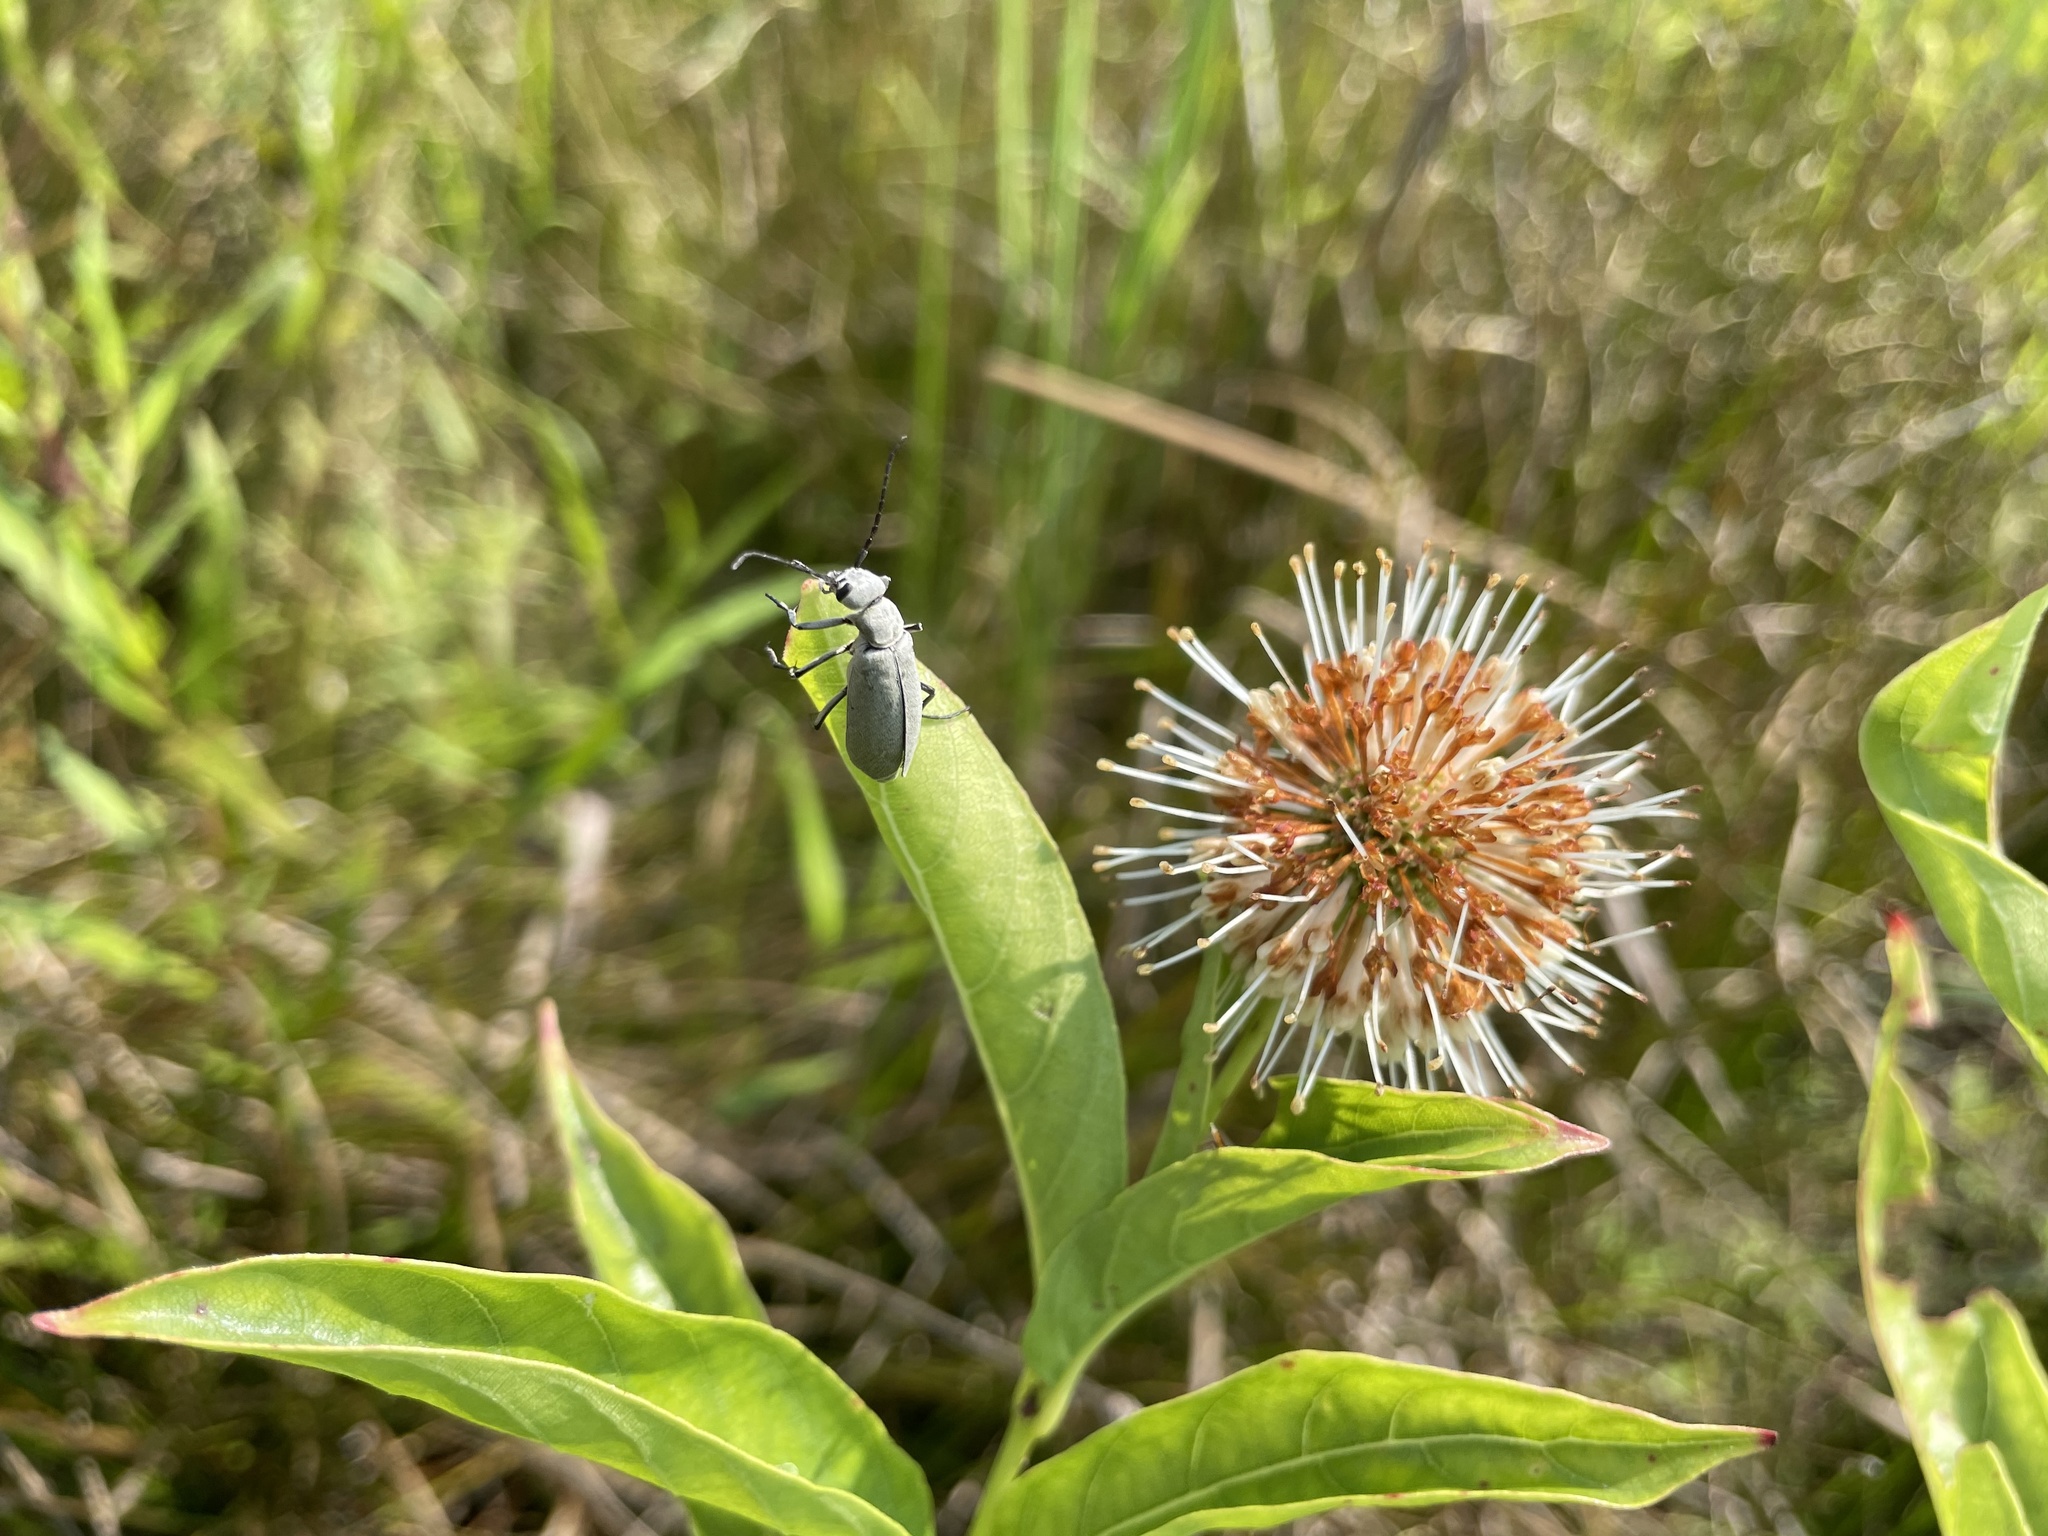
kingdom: Animalia
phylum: Arthropoda
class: Insecta
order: Coleoptera
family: Meloidae
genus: Epicauta
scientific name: Epicauta immaculata
